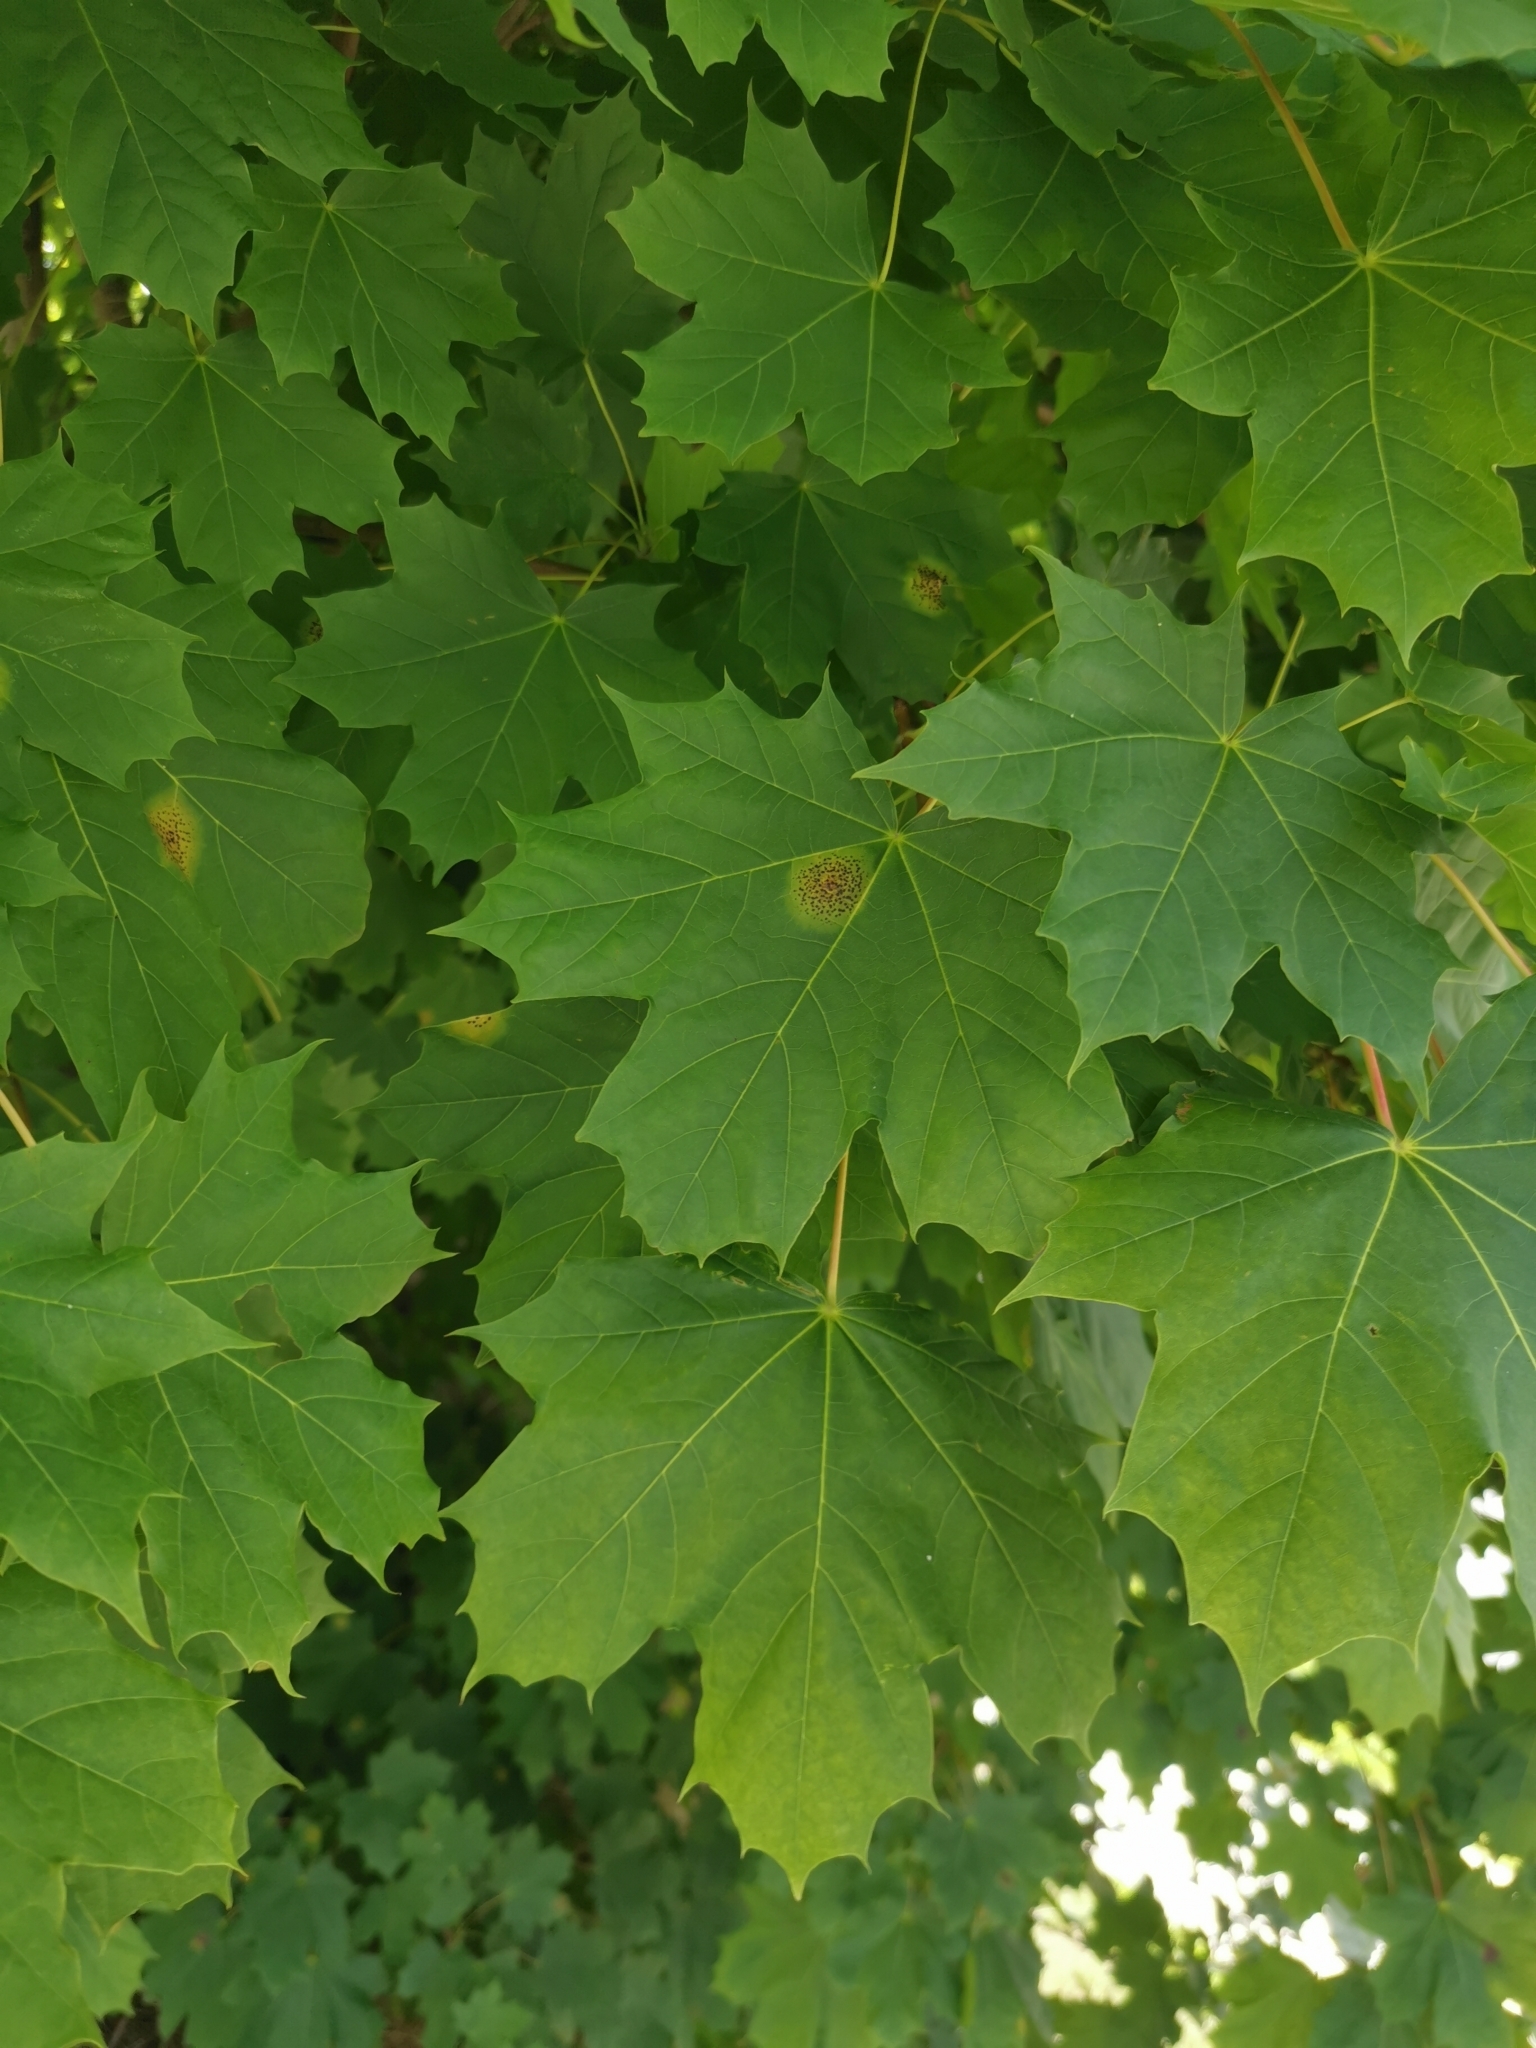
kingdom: Plantae
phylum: Tracheophyta
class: Magnoliopsida
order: Sapindales
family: Sapindaceae
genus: Acer
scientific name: Acer platanoides
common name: Norway maple
